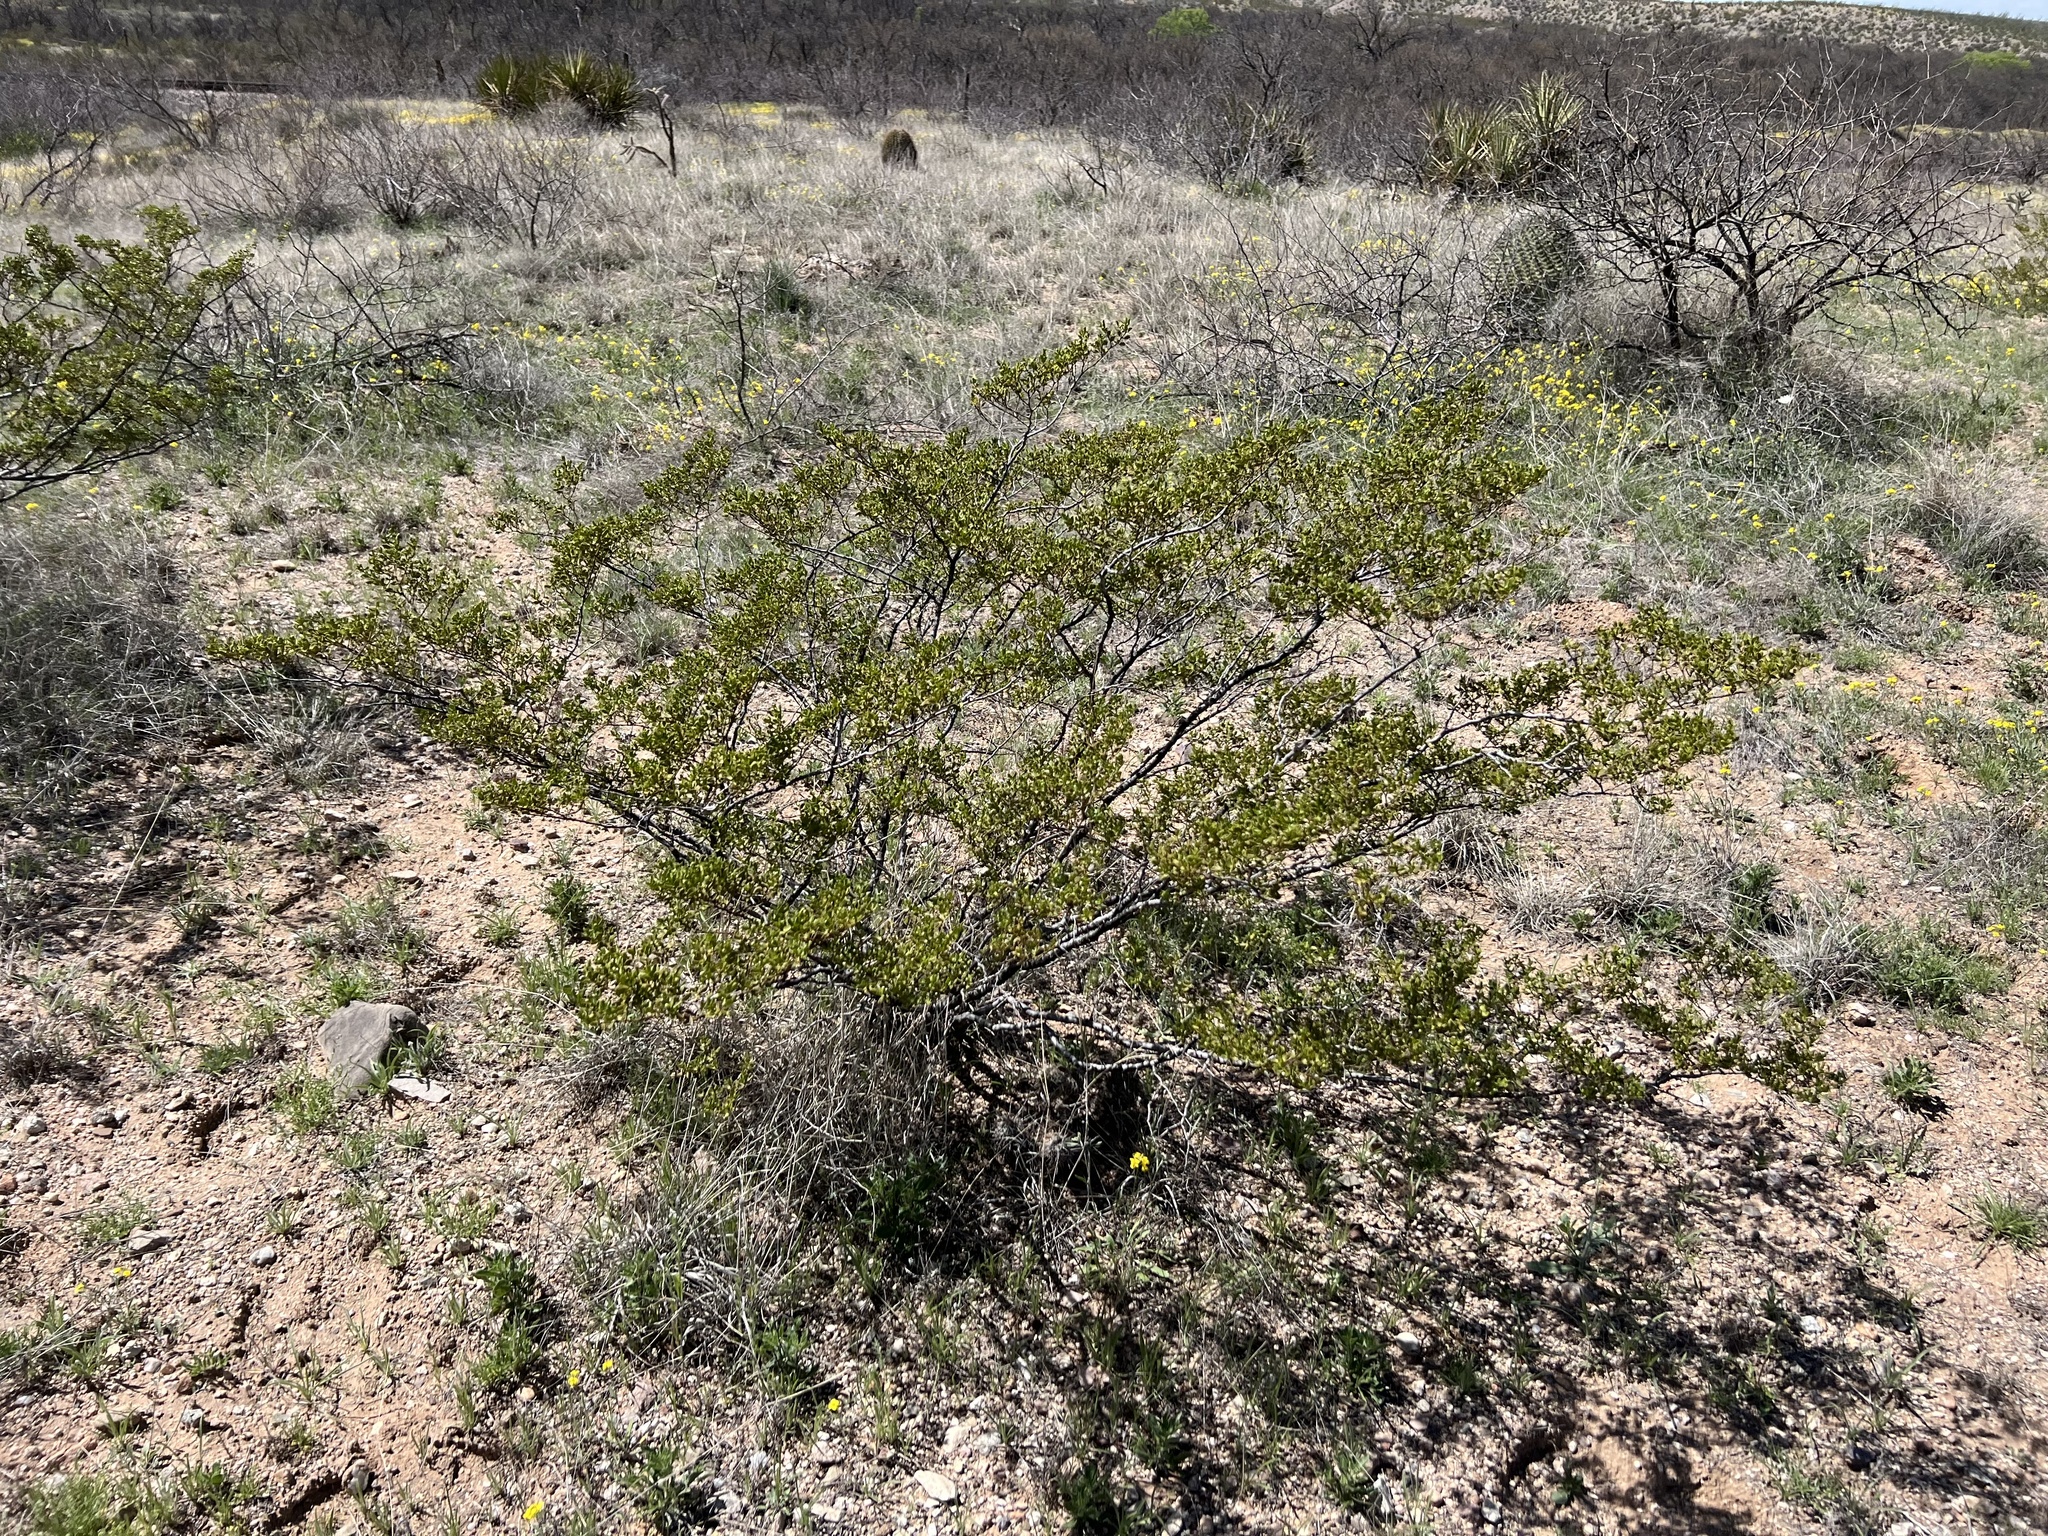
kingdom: Plantae
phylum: Tracheophyta
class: Magnoliopsida
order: Zygophyllales
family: Zygophyllaceae
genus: Larrea
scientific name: Larrea tridentata
